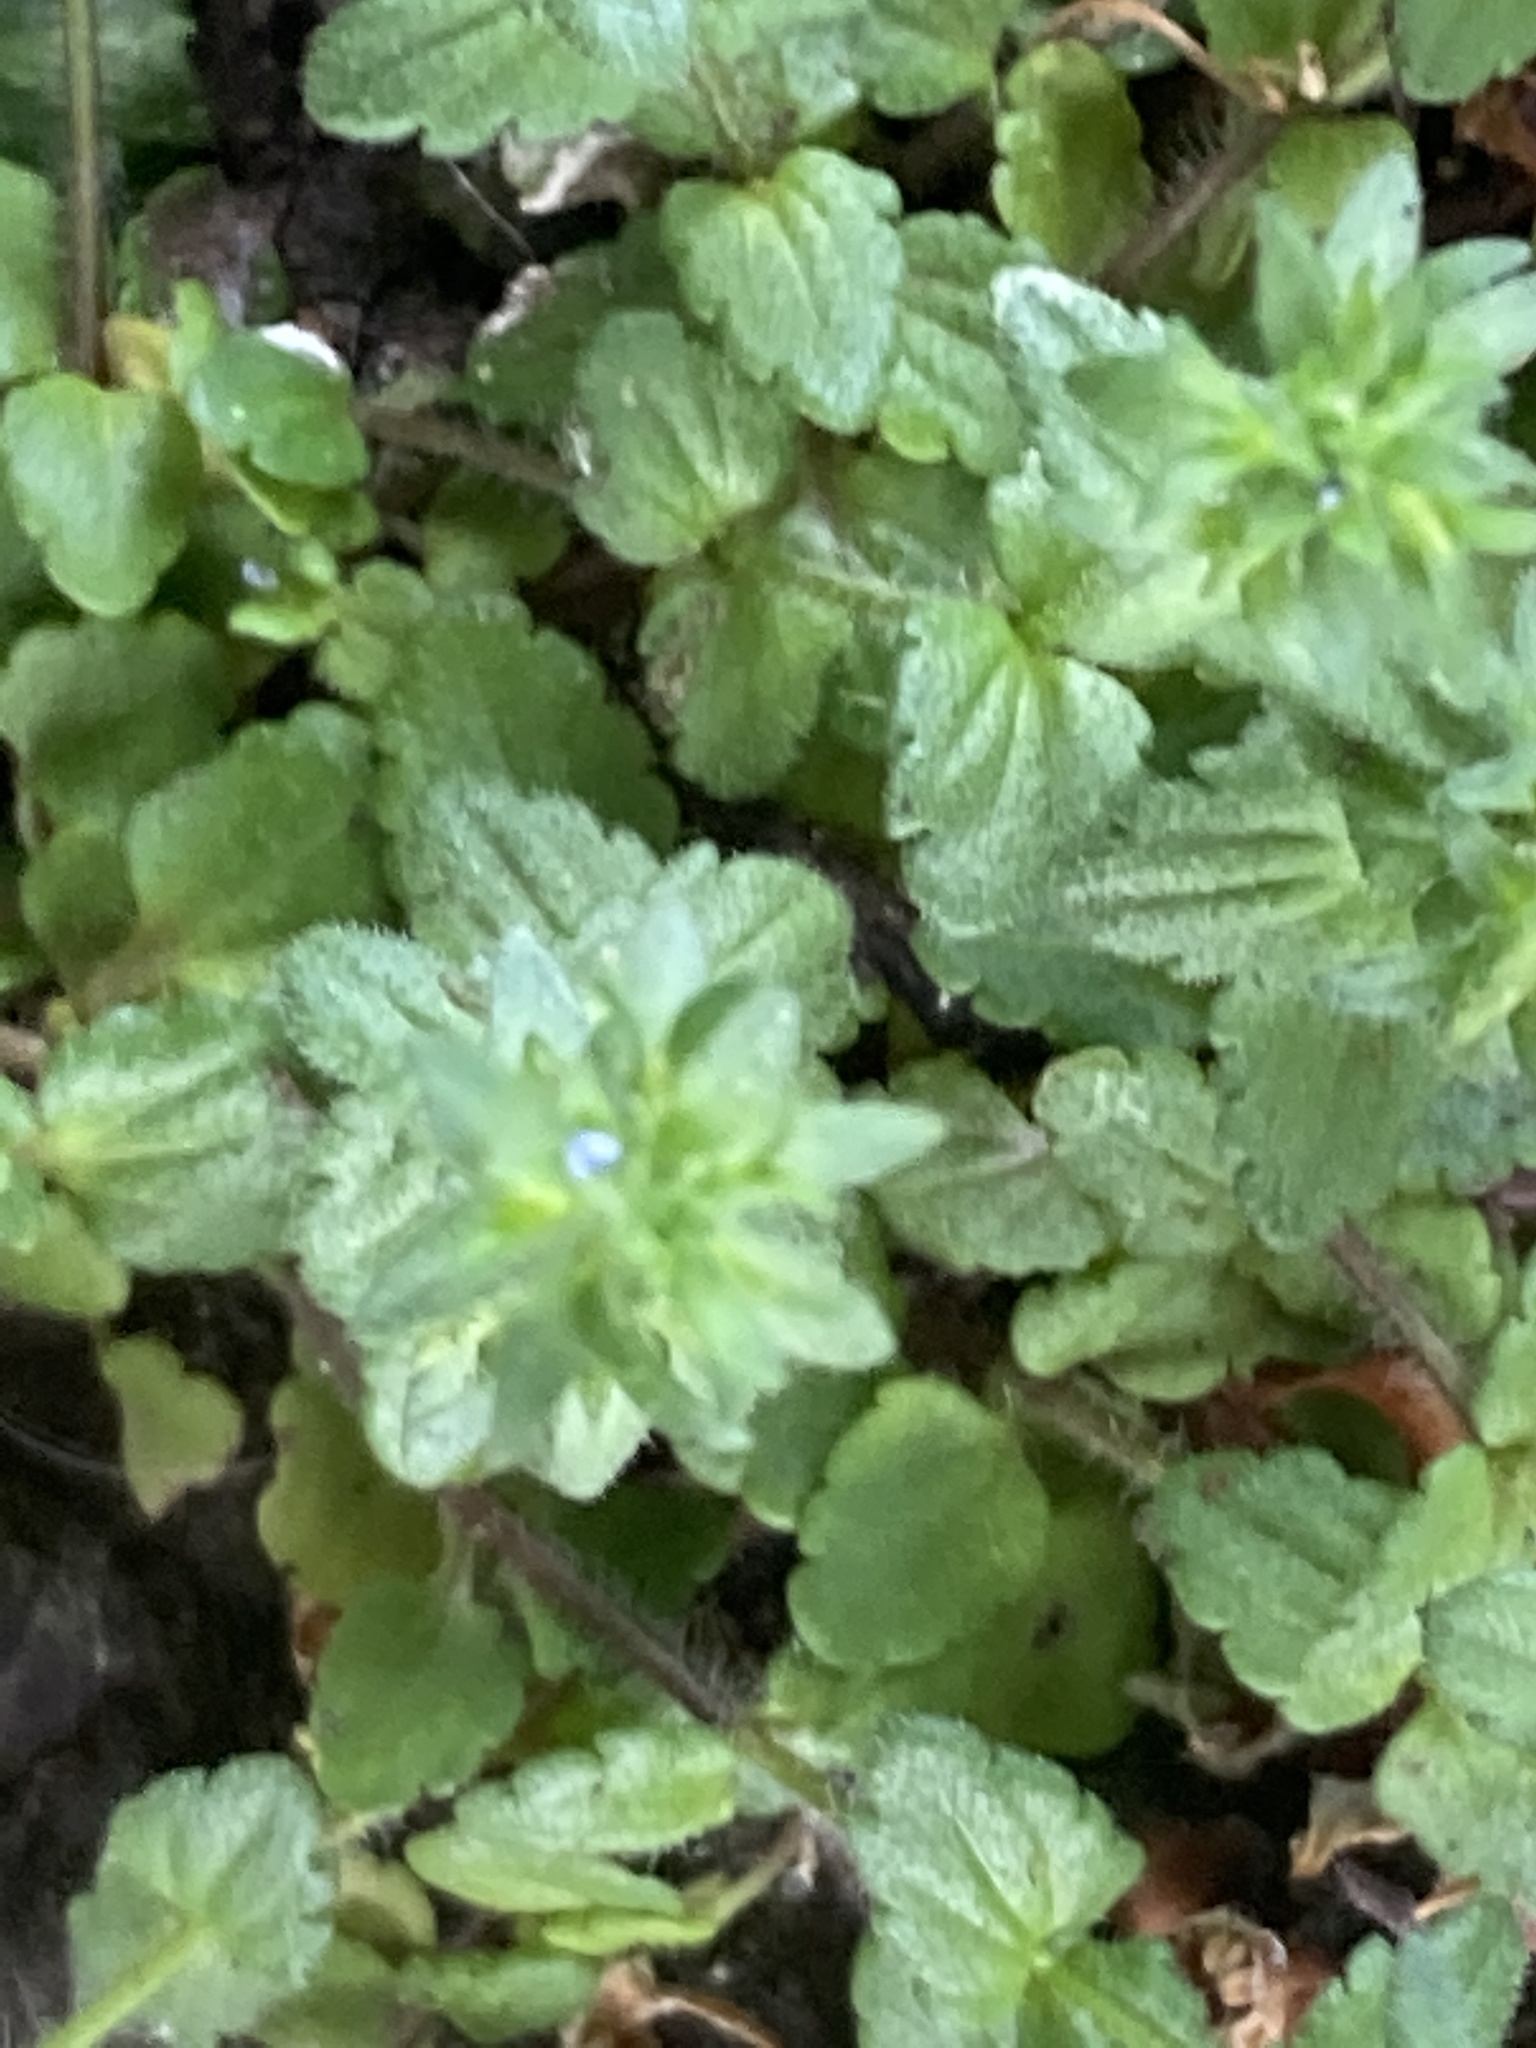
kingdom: Plantae
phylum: Tracheophyta
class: Magnoliopsida
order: Lamiales
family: Plantaginaceae
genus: Veronica
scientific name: Veronica arvensis
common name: Corn speedwell
